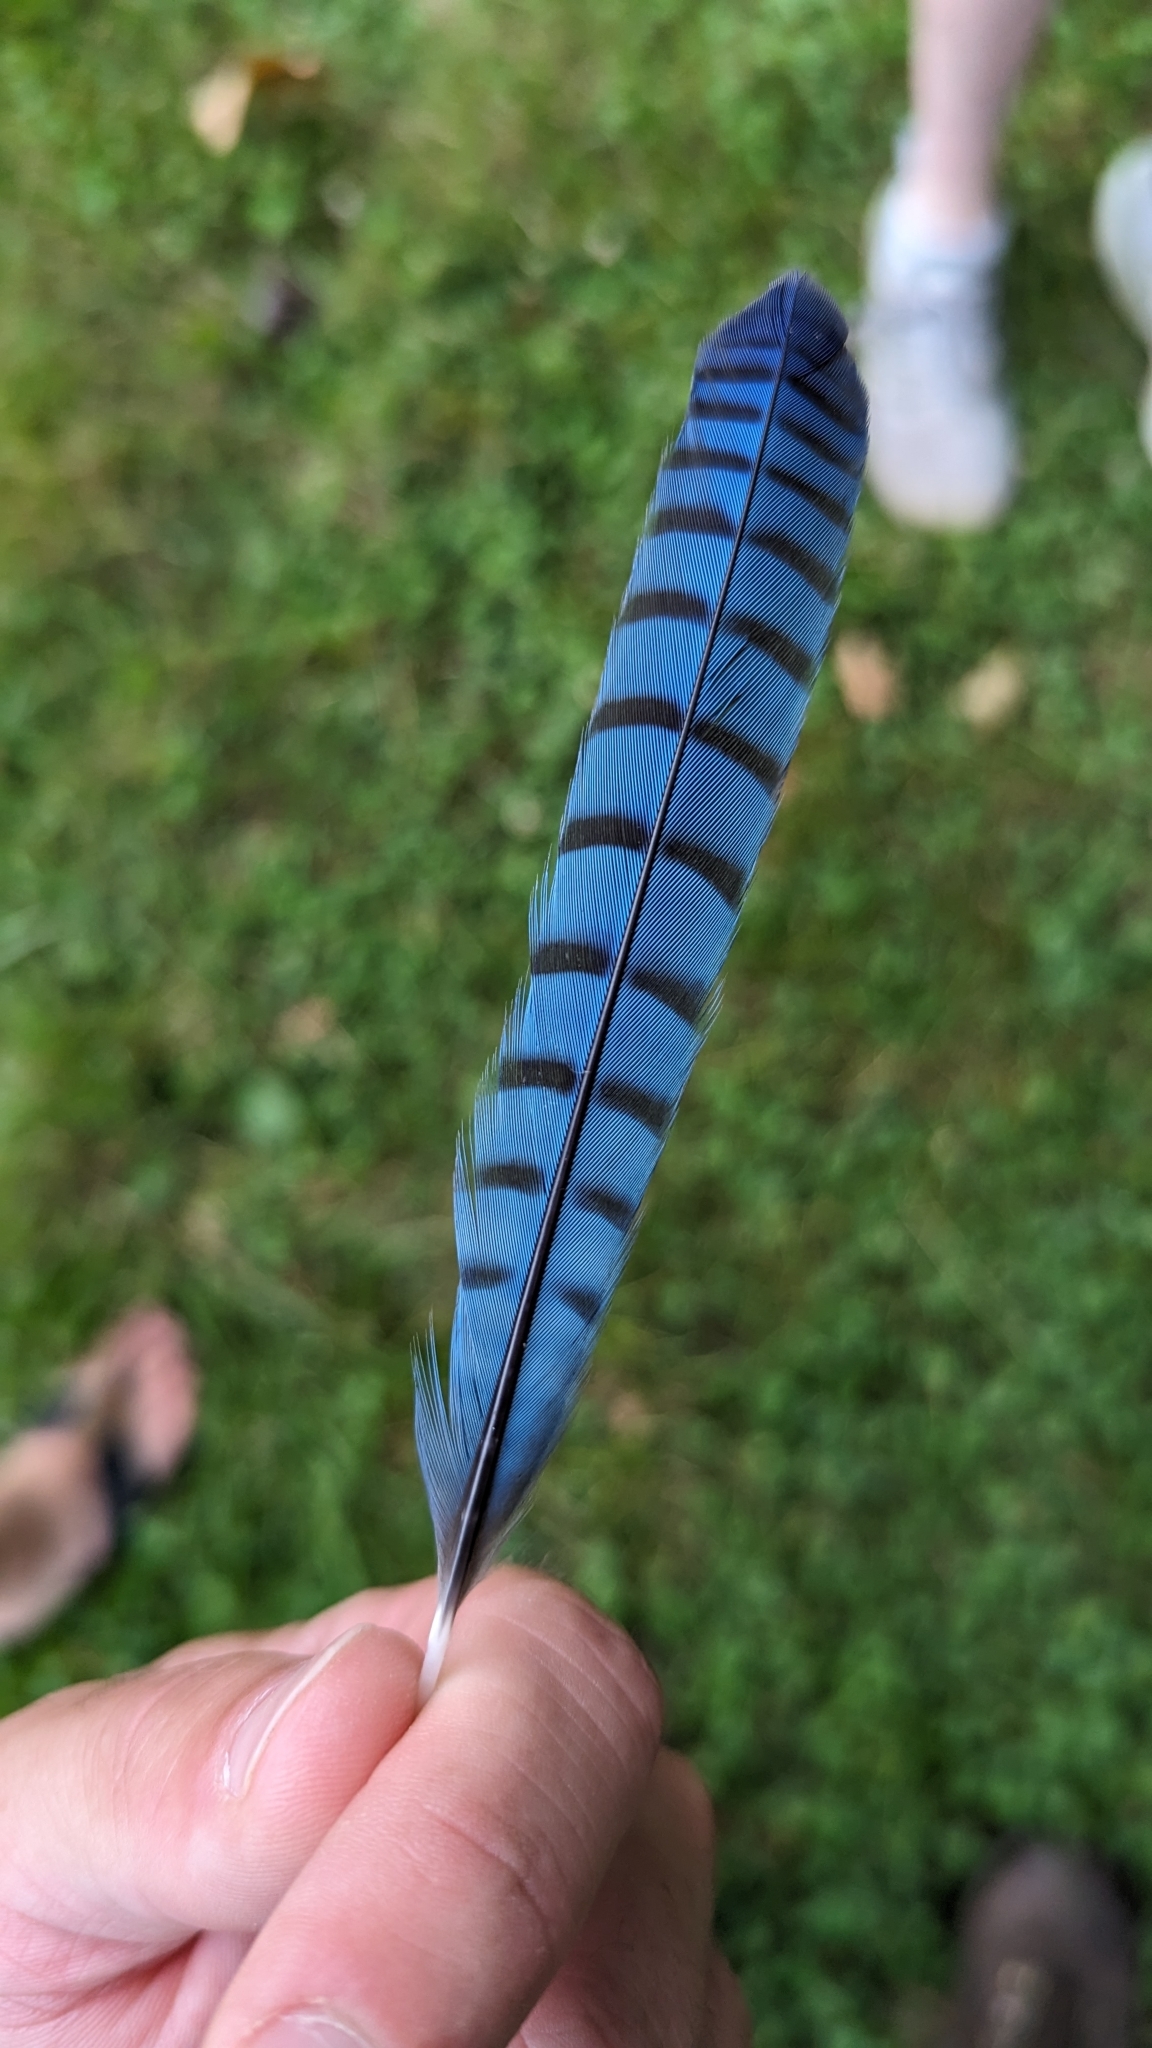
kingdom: Animalia
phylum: Chordata
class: Aves
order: Passeriformes
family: Corvidae
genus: Cyanocitta
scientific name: Cyanocitta cristata
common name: Blue jay
